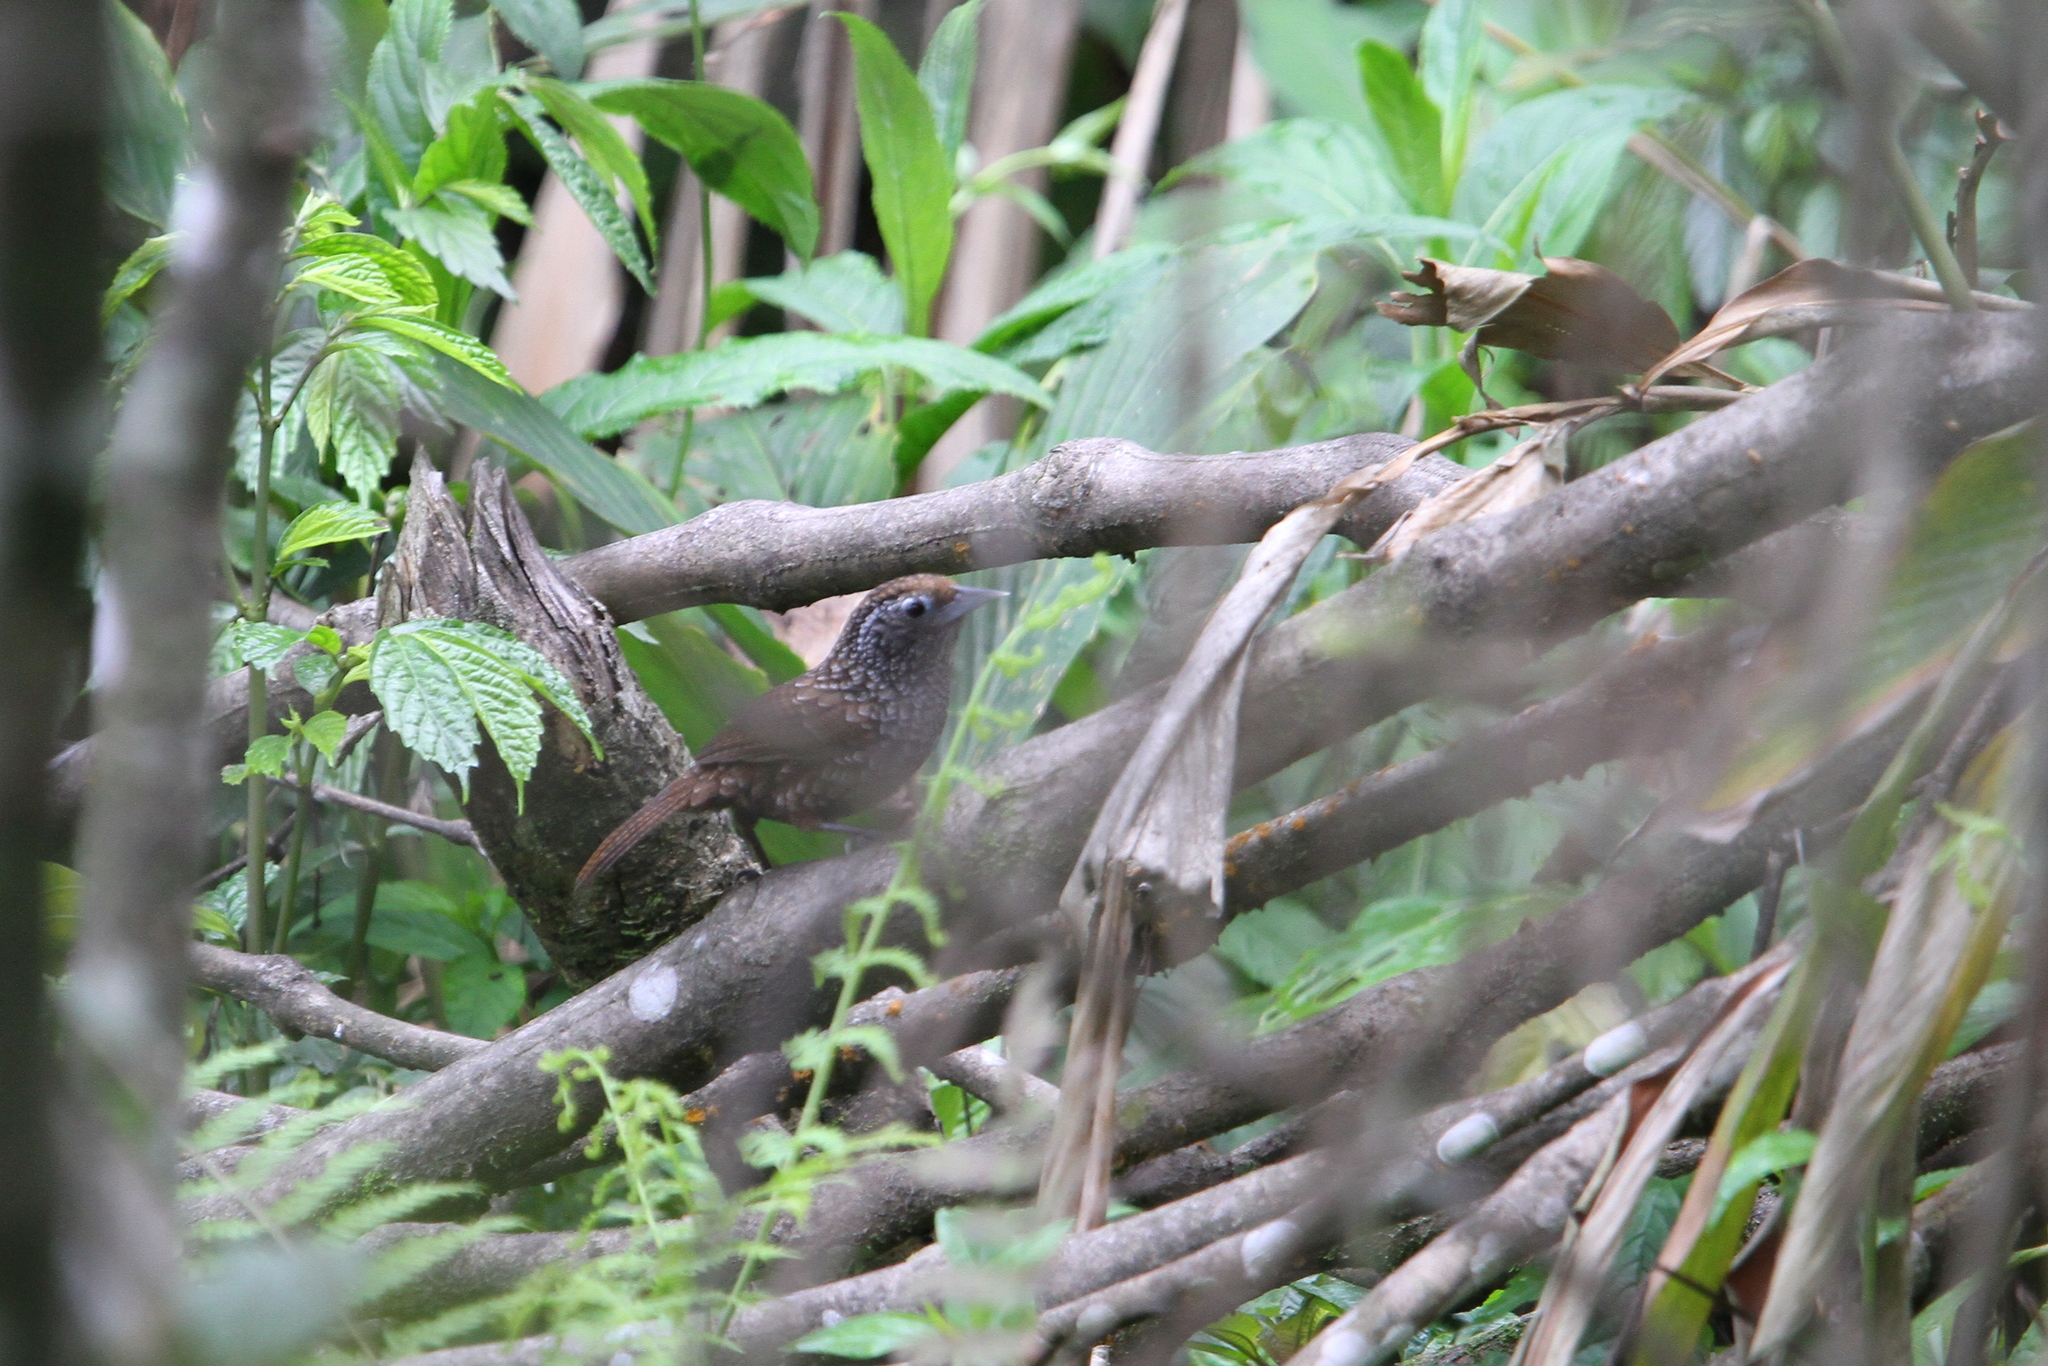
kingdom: Animalia
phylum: Chordata
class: Aves
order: Passeriformes
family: Timaliidae
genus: Sphenocichla
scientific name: Sphenocichla roberti
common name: Cachar wedge-billed babbler
